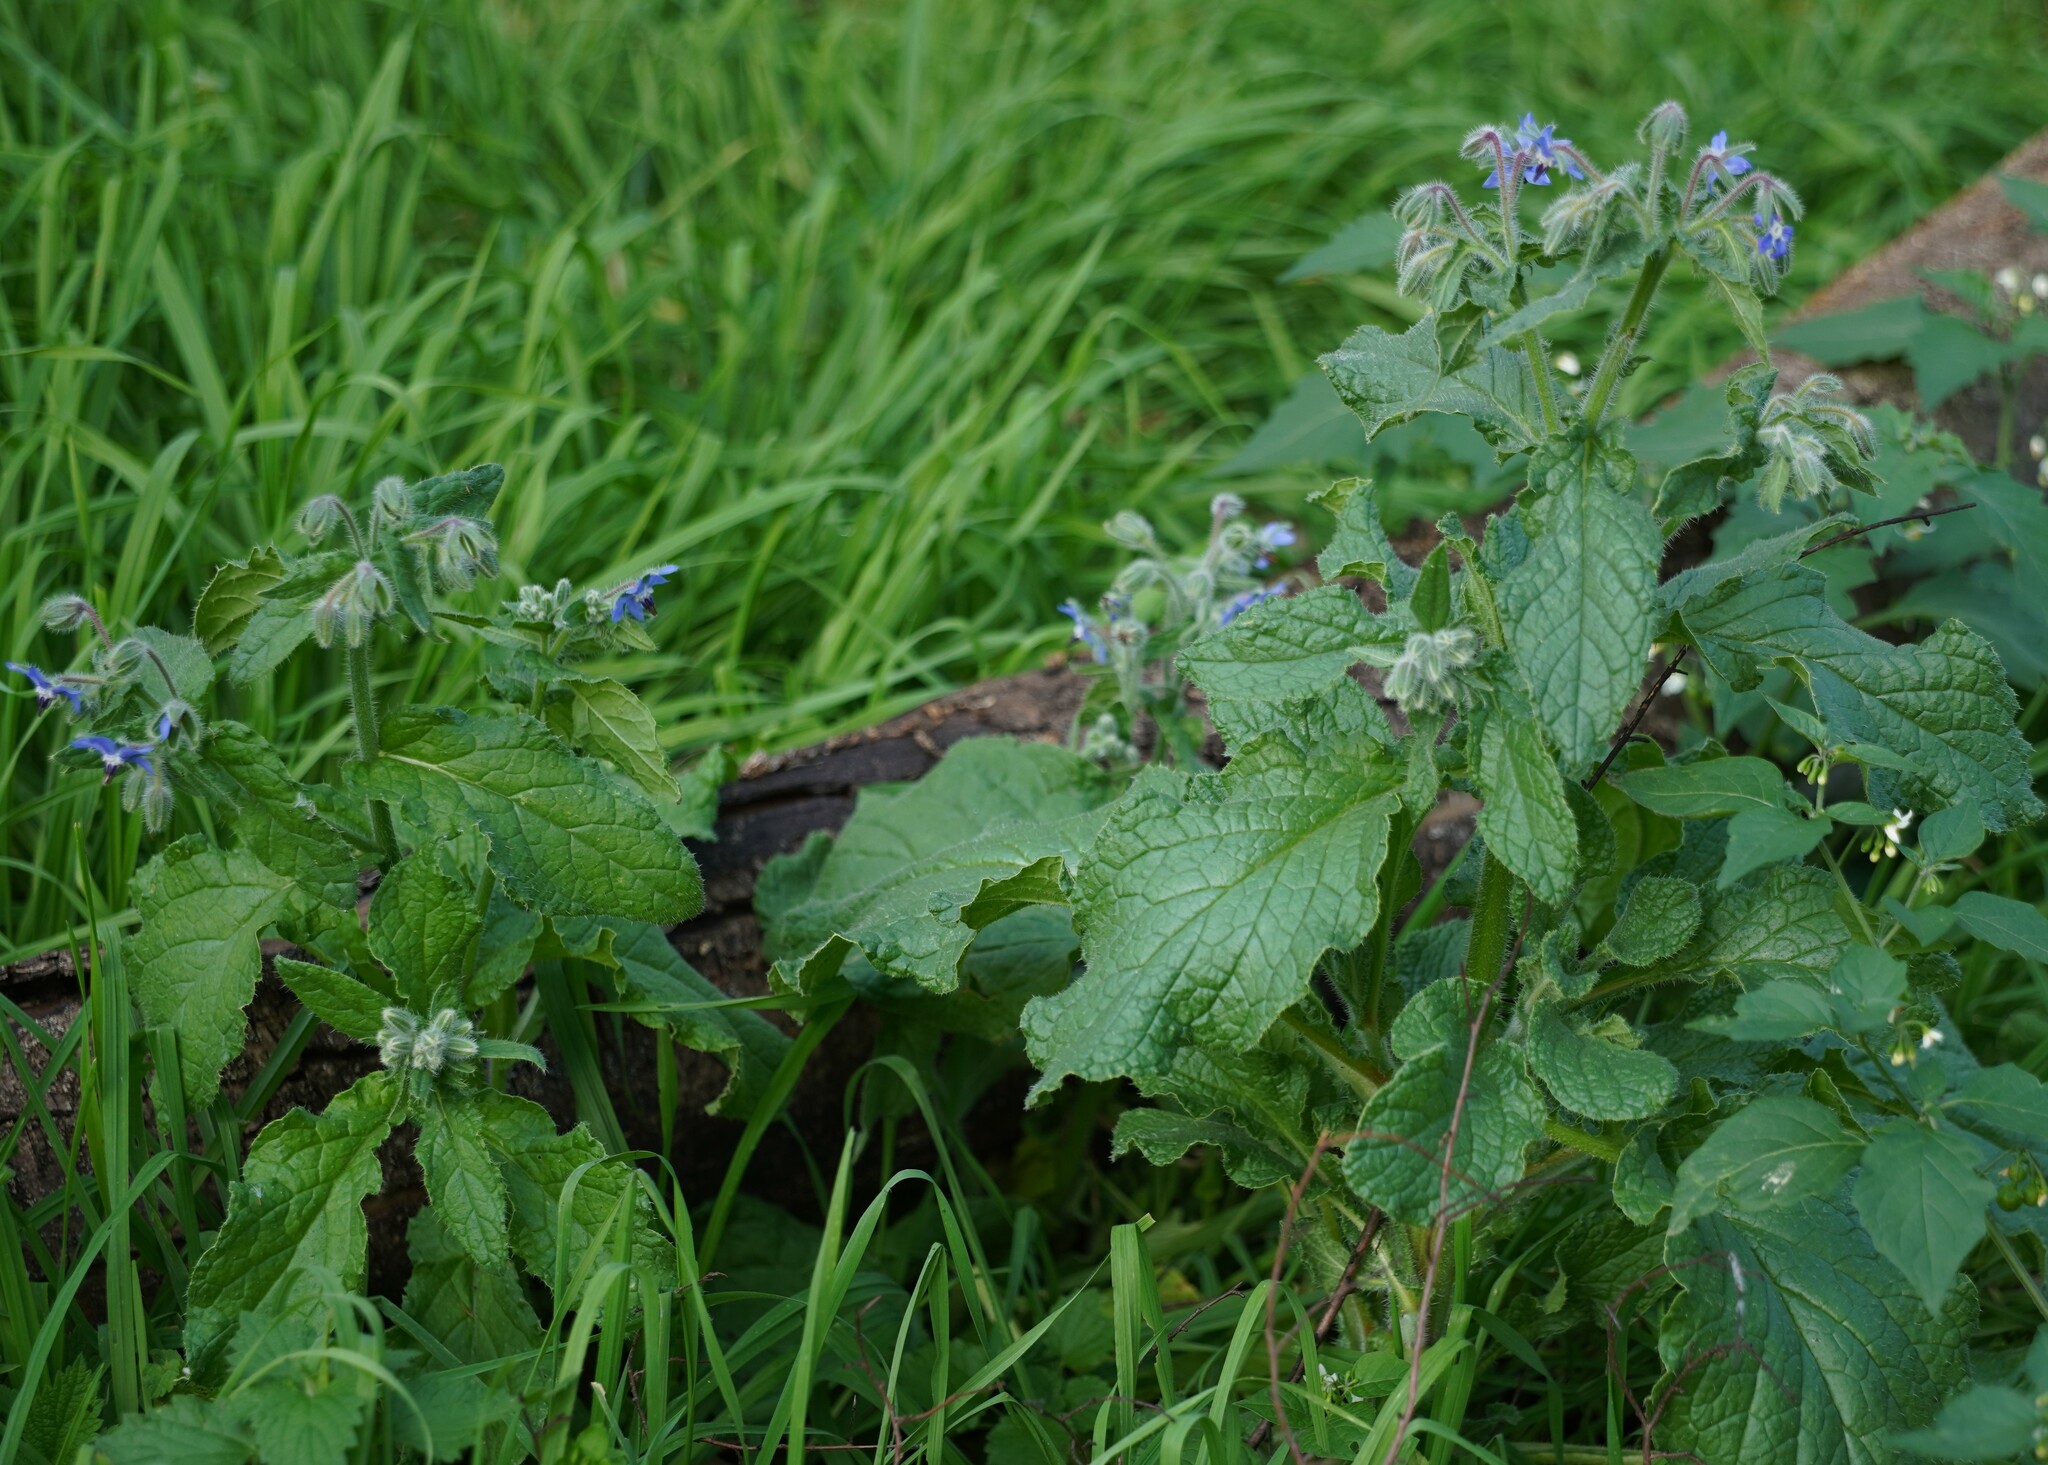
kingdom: Plantae
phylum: Tracheophyta
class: Magnoliopsida
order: Boraginales
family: Boraginaceae
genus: Borago
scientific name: Borago officinalis
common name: Borage
